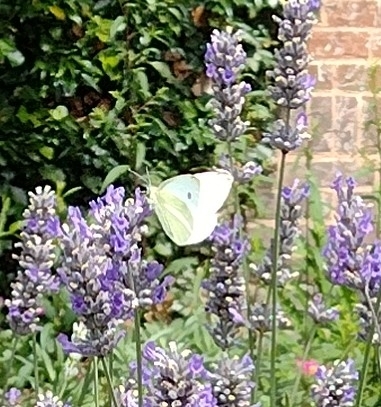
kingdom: Animalia
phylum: Arthropoda
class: Insecta
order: Lepidoptera
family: Pieridae
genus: Pieris
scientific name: Pieris rapae
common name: Small white
